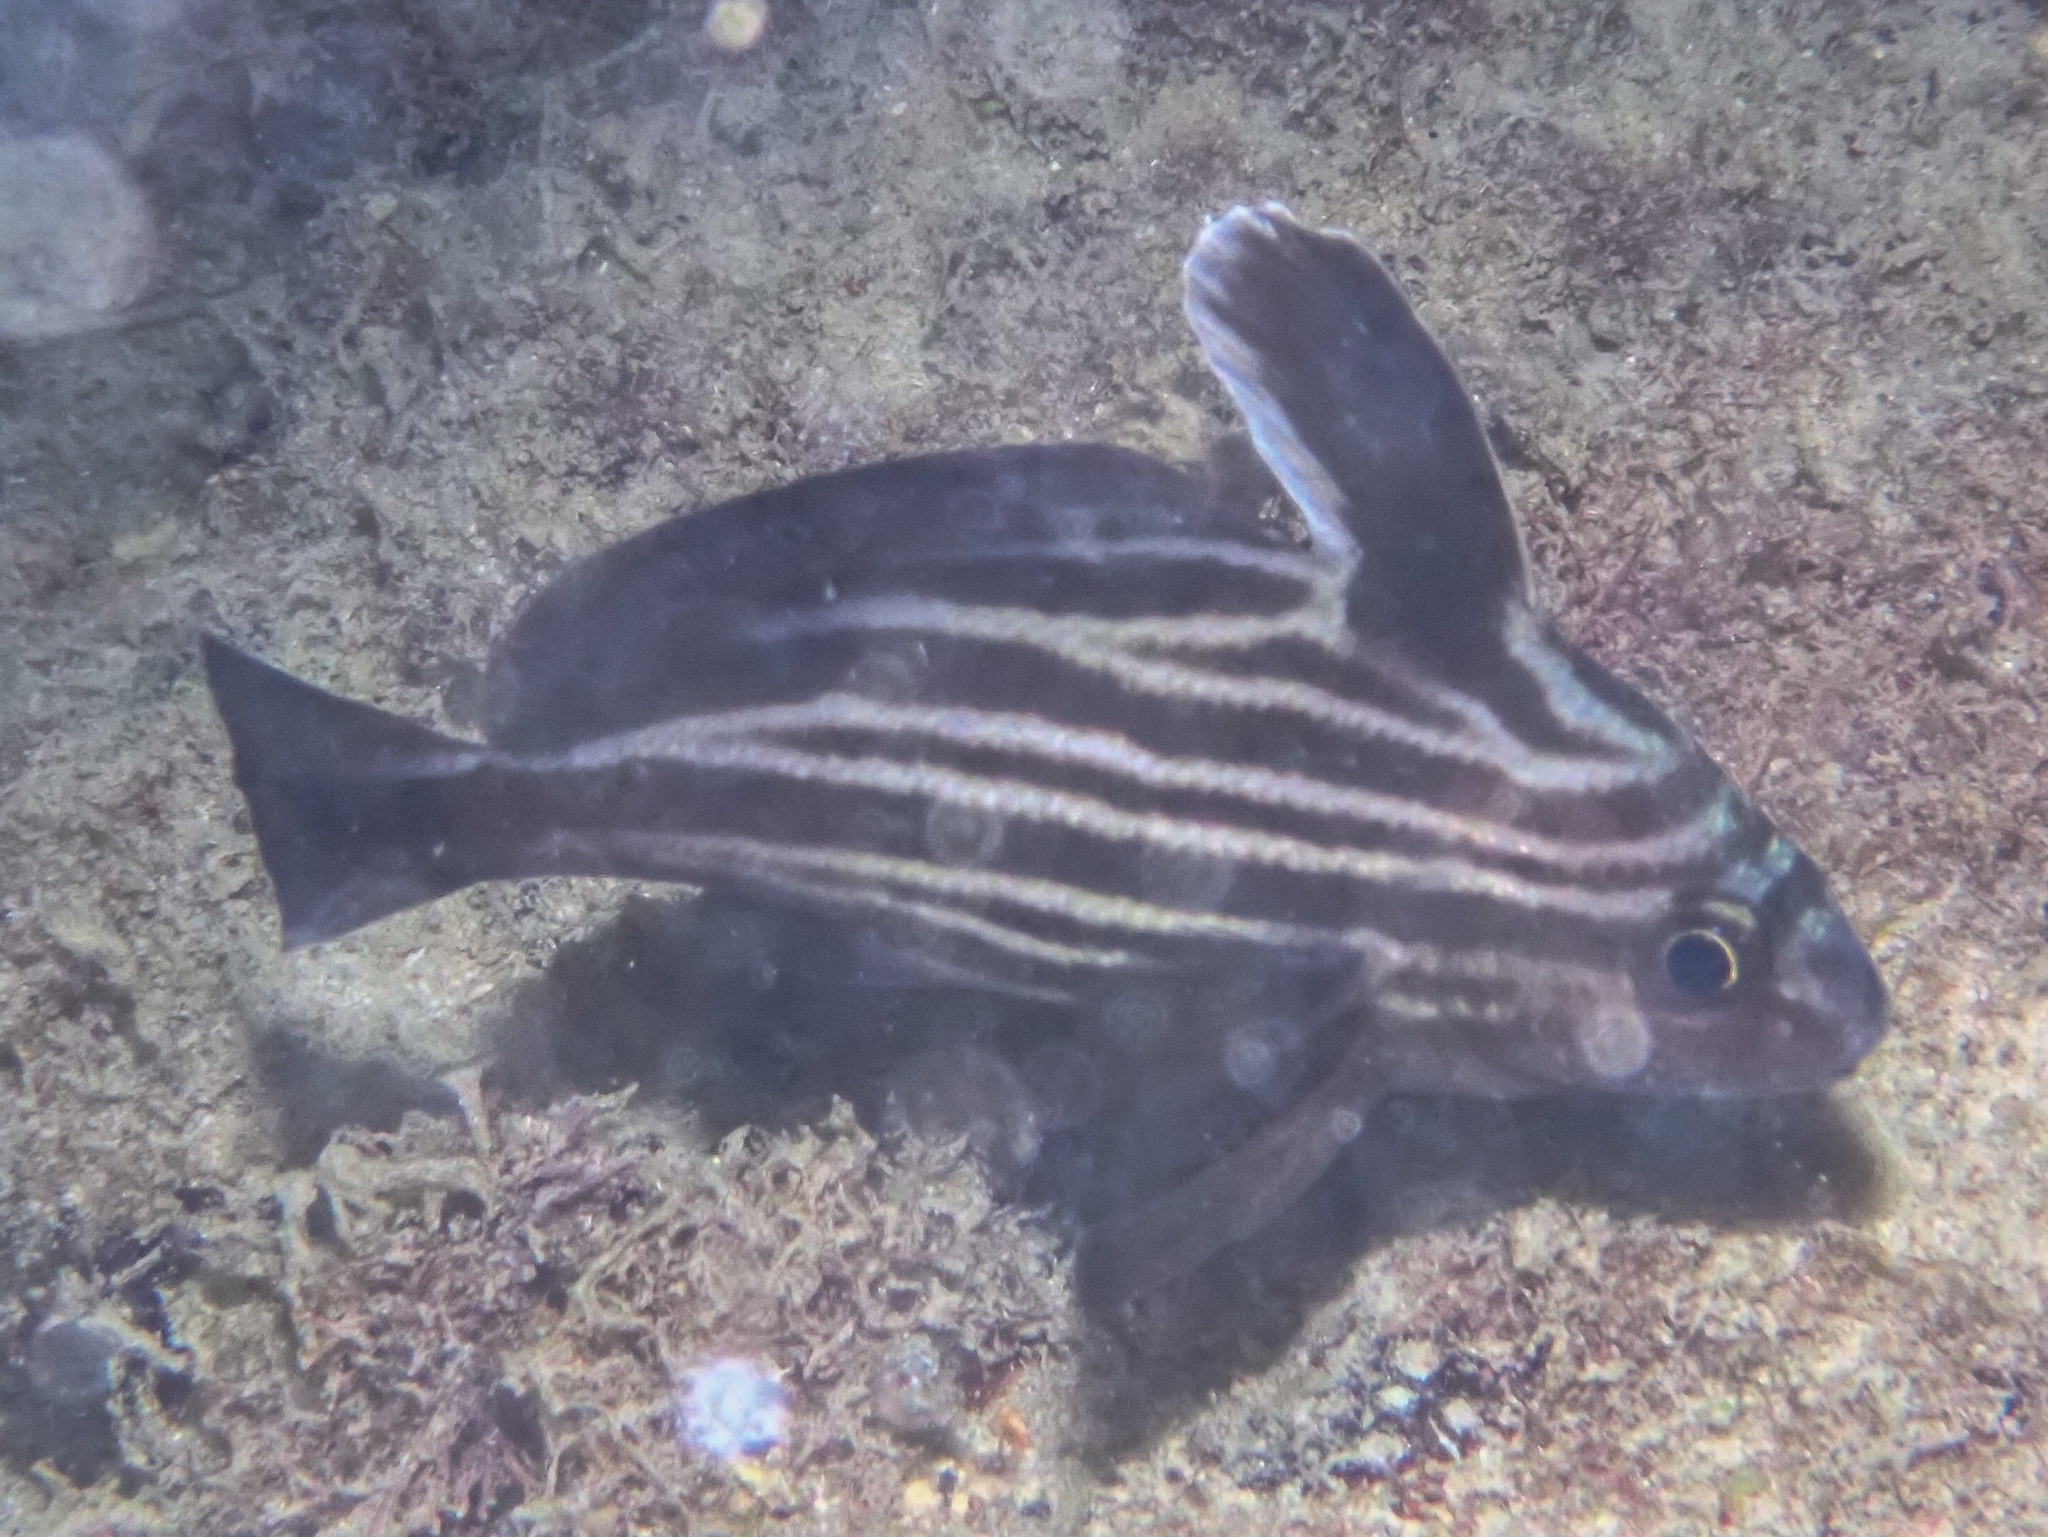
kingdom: Animalia
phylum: Chordata
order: Perciformes
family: Sciaenidae
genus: Pareques
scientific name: Pareques acuminatus
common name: High-hat
